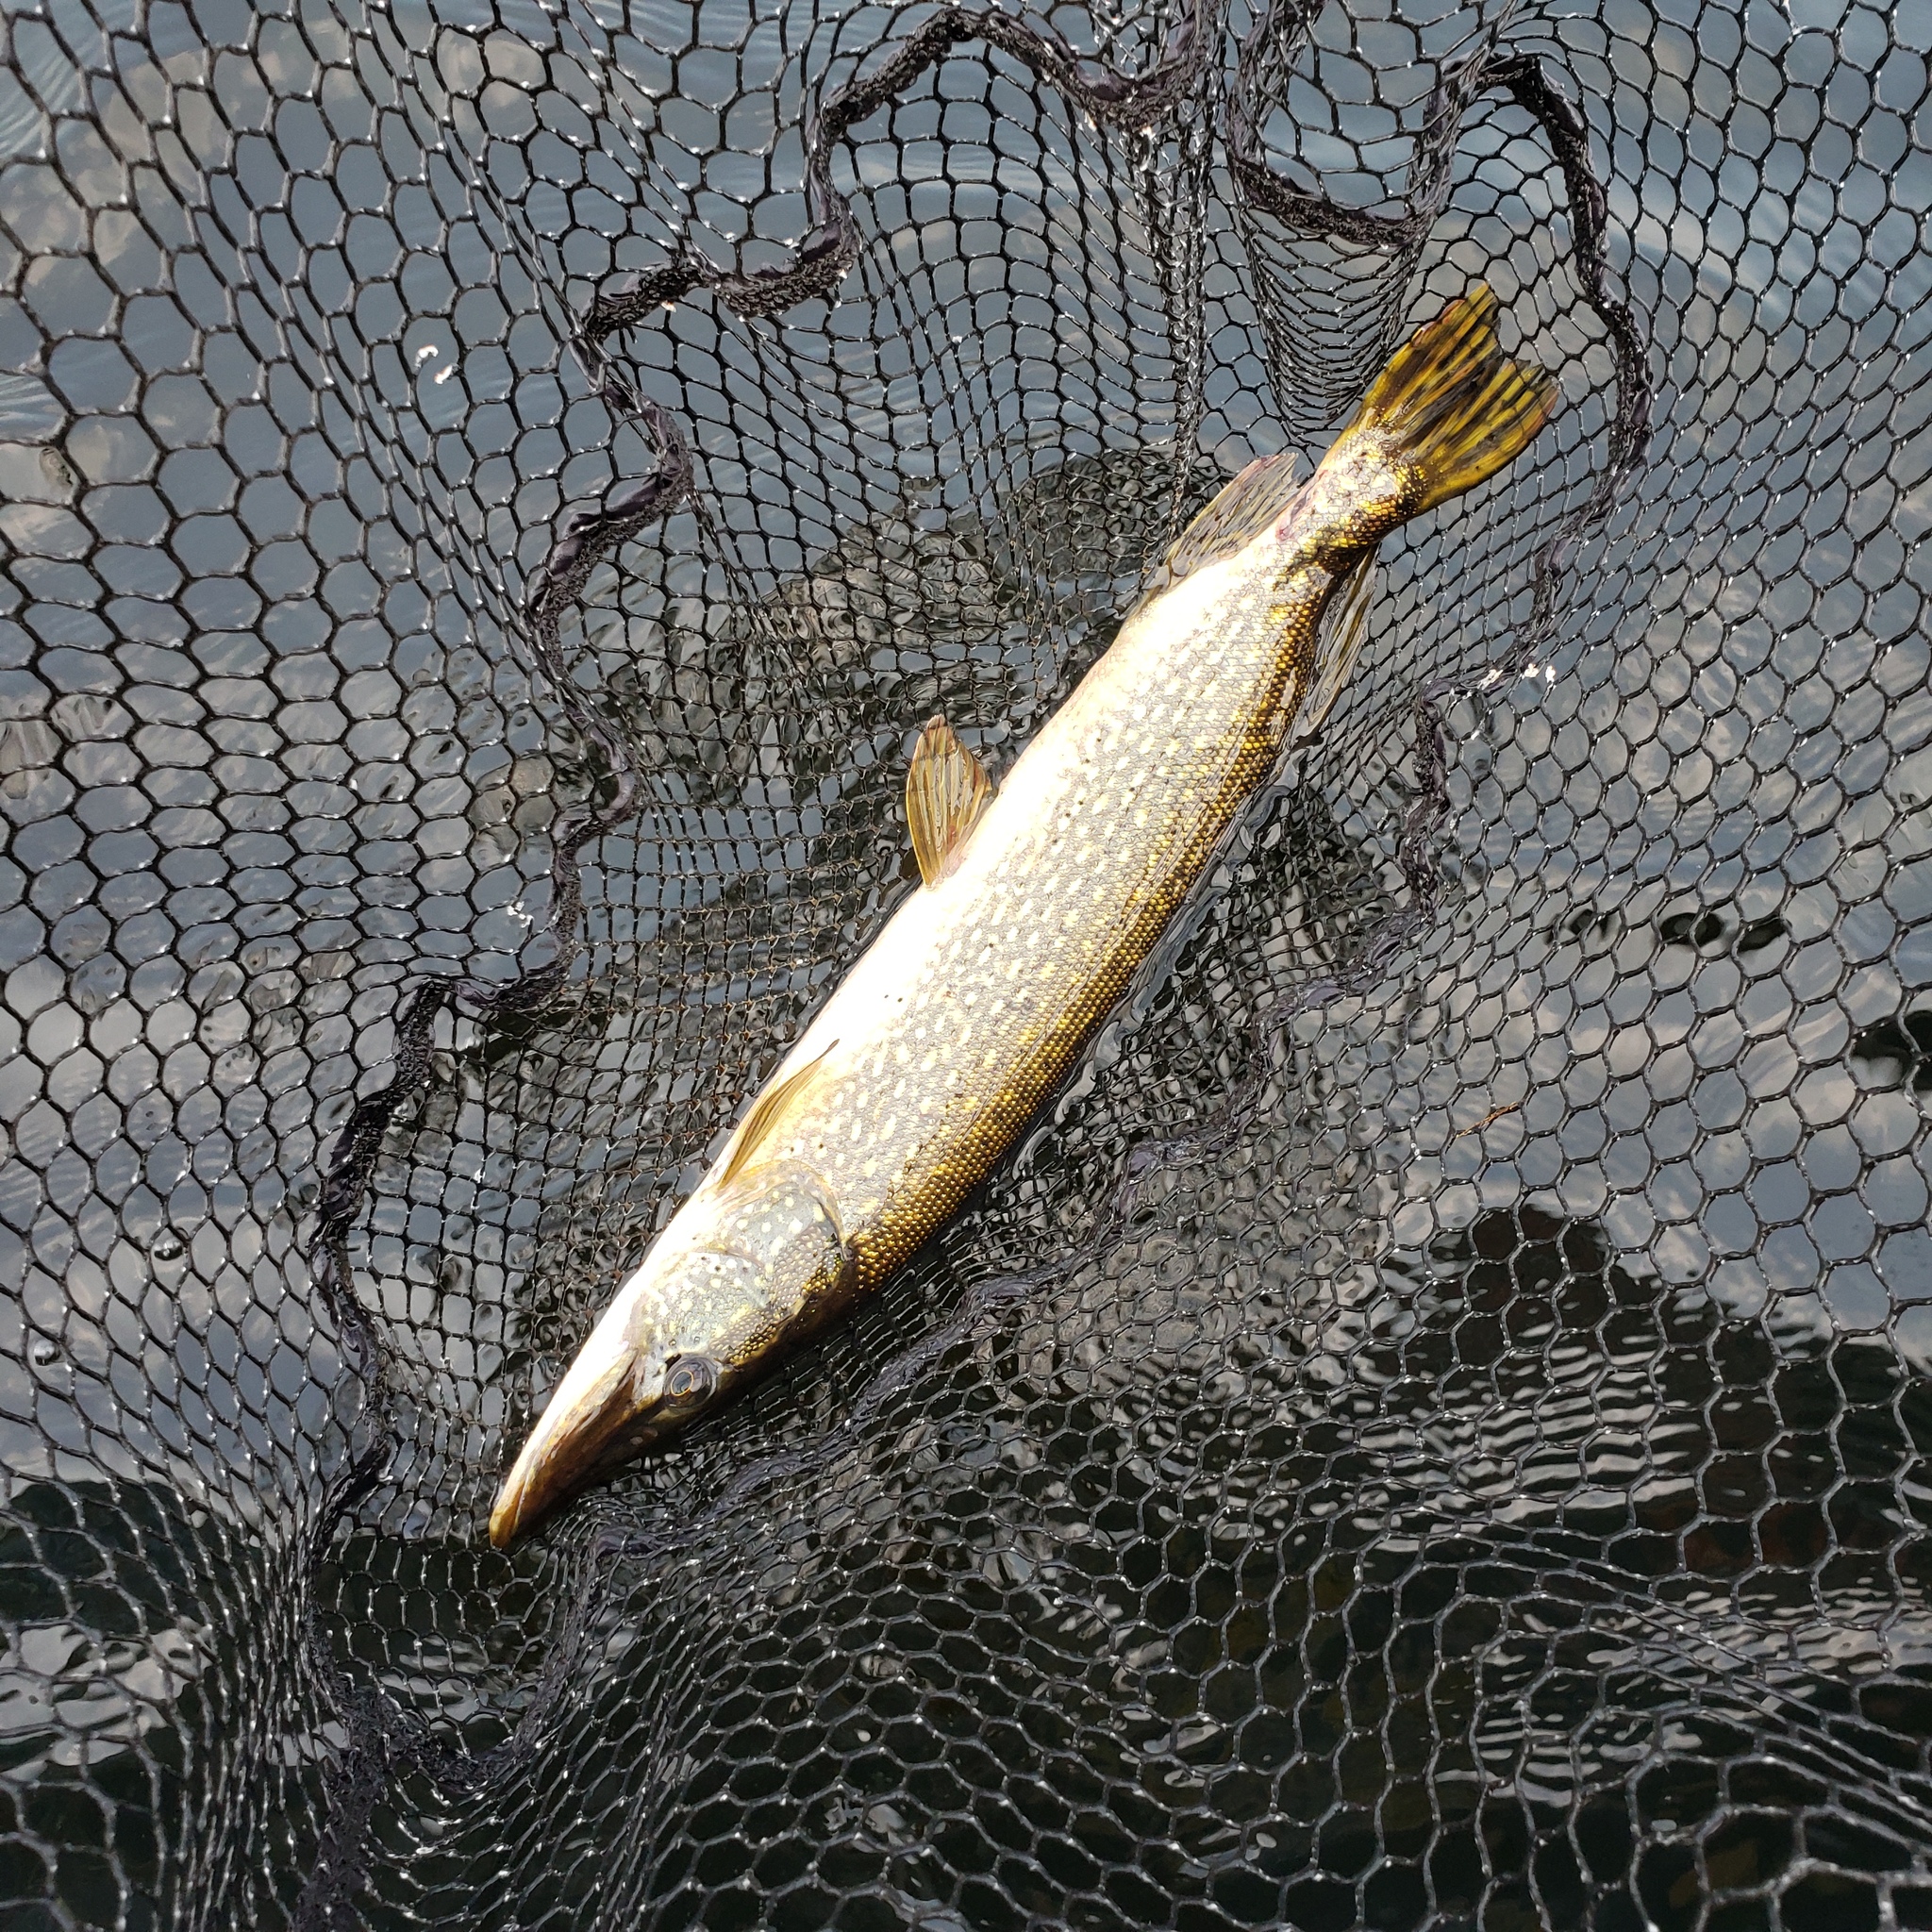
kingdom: Animalia
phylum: Chordata
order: Esociformes
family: Esocidae
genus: Esox
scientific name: Esox lucius
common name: Northern pike
